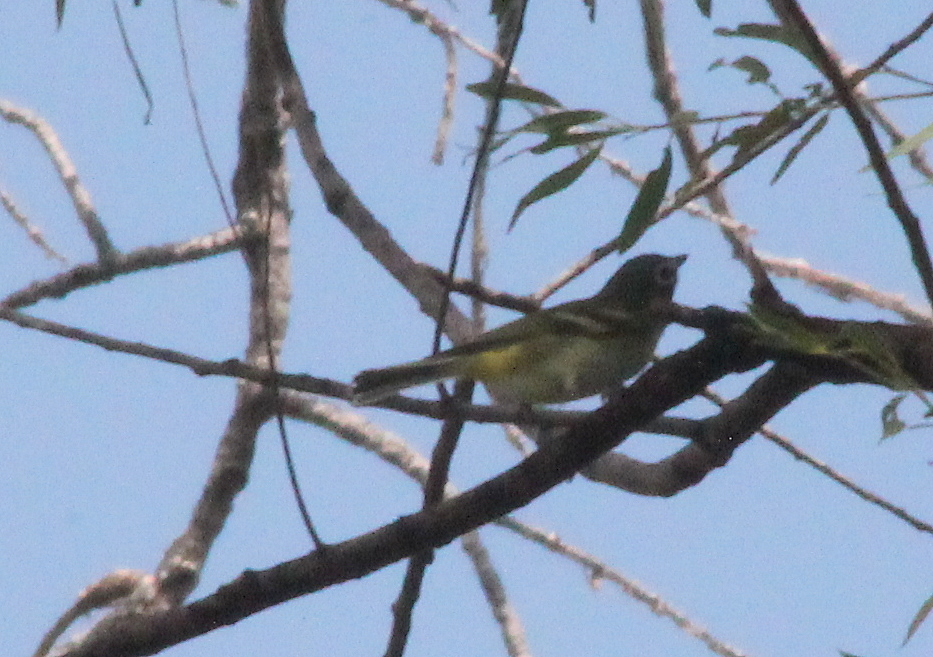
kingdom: Animalia
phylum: Chordata
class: Aves
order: Passeriformes
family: Vireonidae
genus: Vireo
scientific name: Vireo solitarius
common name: Blue-headed vireo
